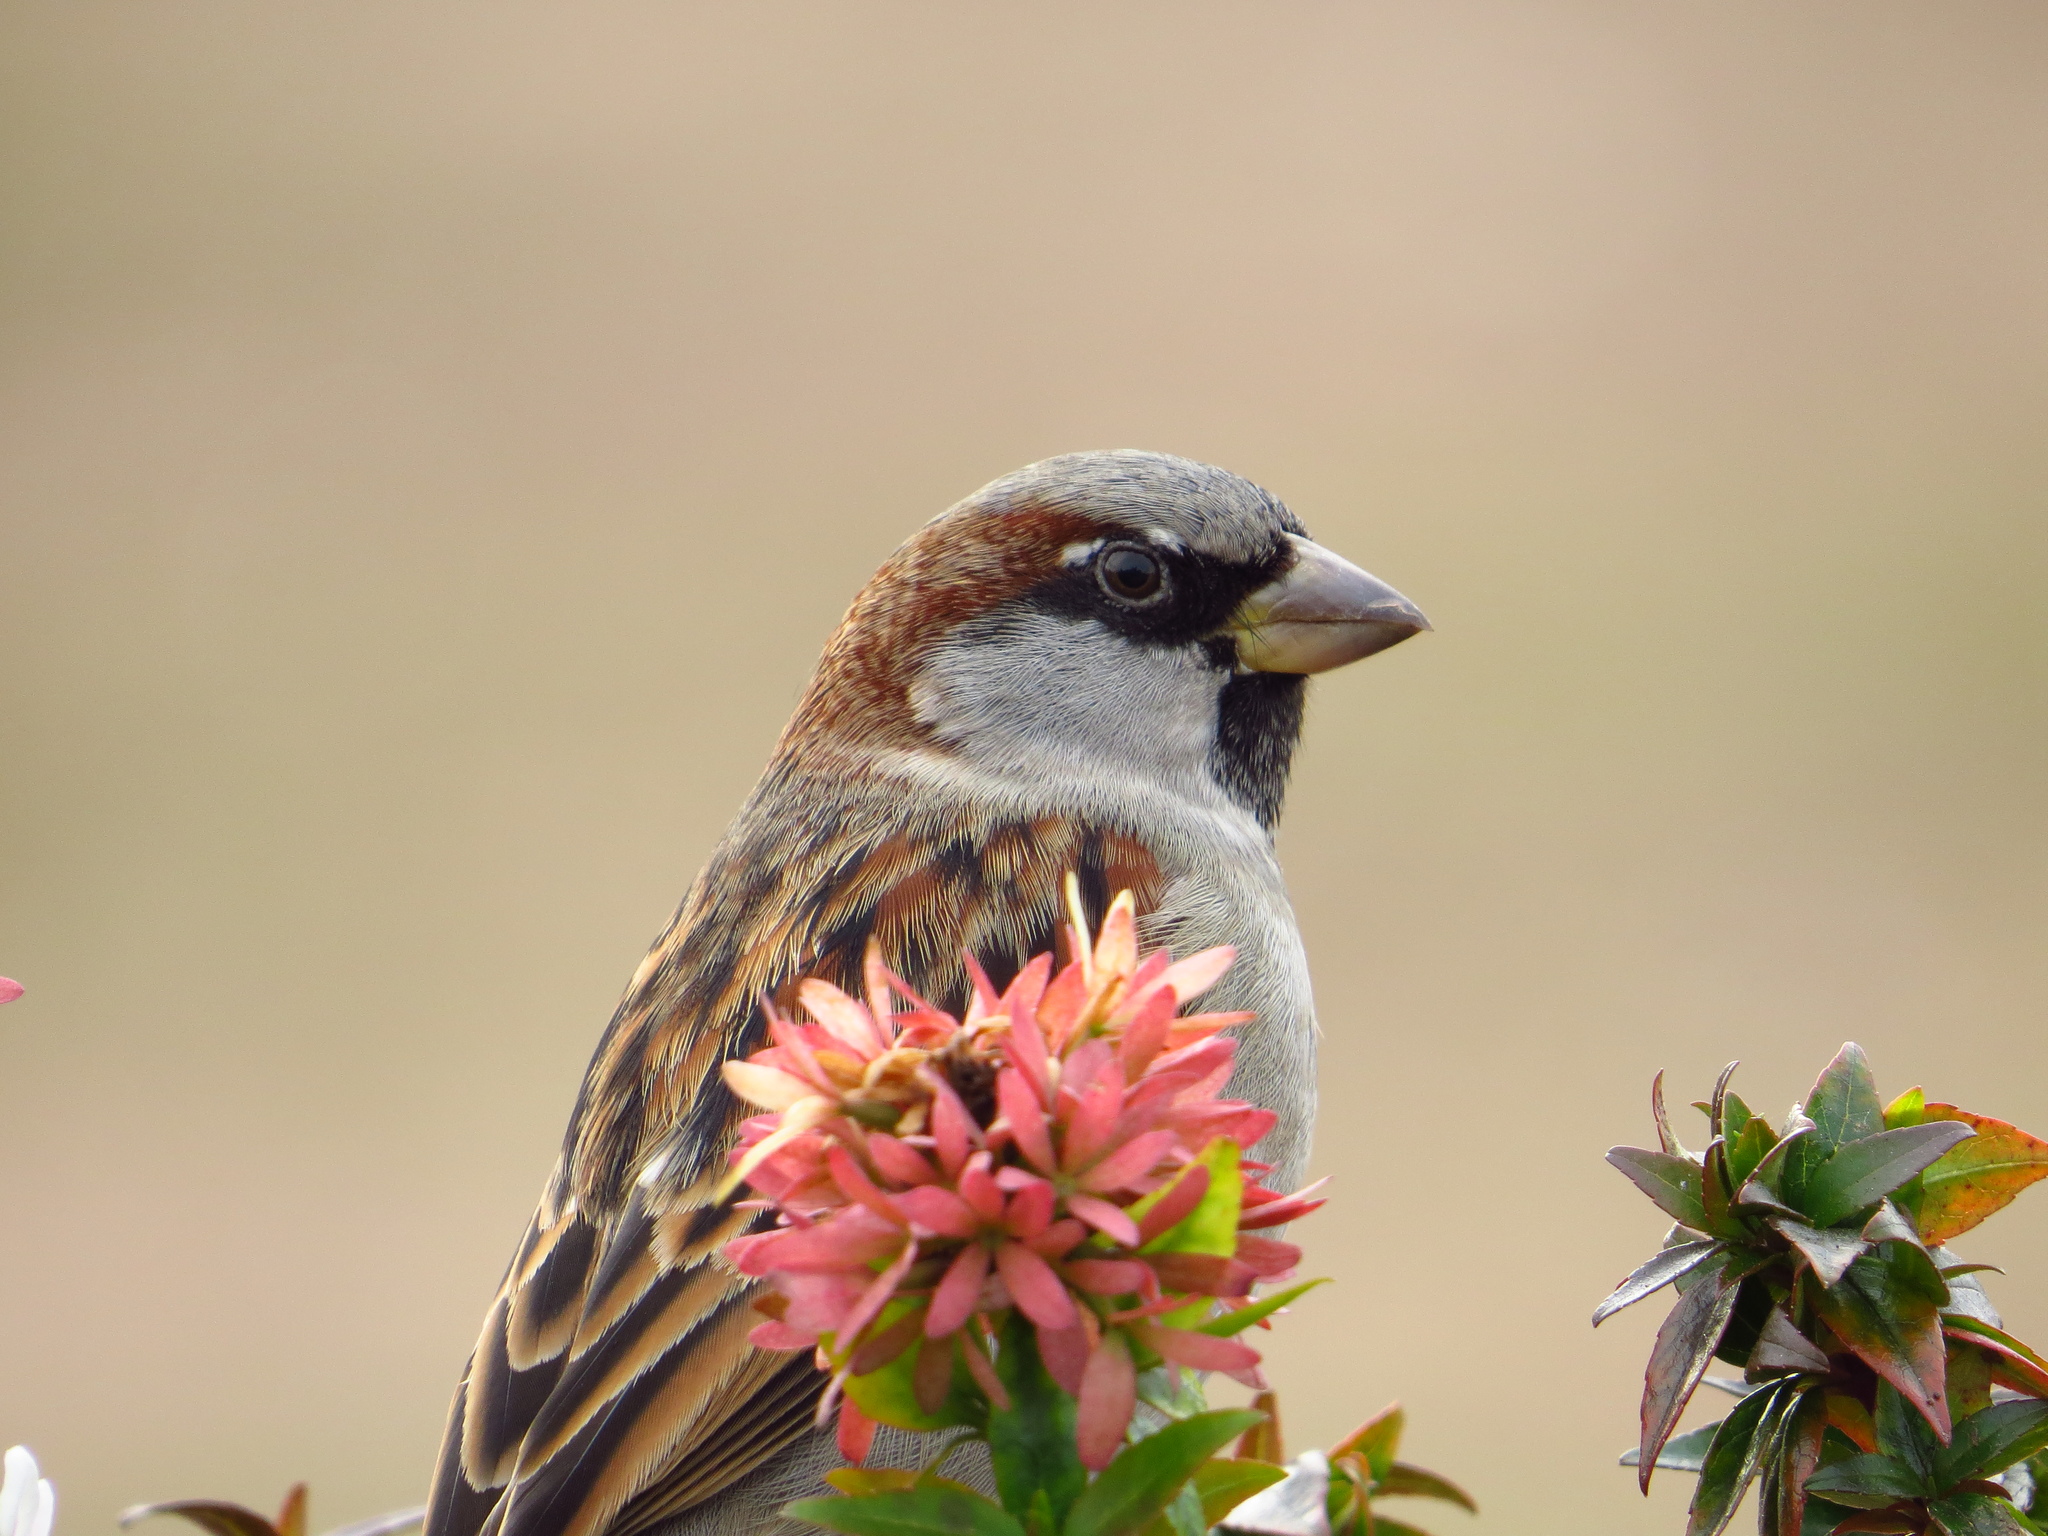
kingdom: Animalia
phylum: Chordata
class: Aves
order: Passeriformes
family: Passeridae
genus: Passer
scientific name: Passer domesticus
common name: House sparrow
